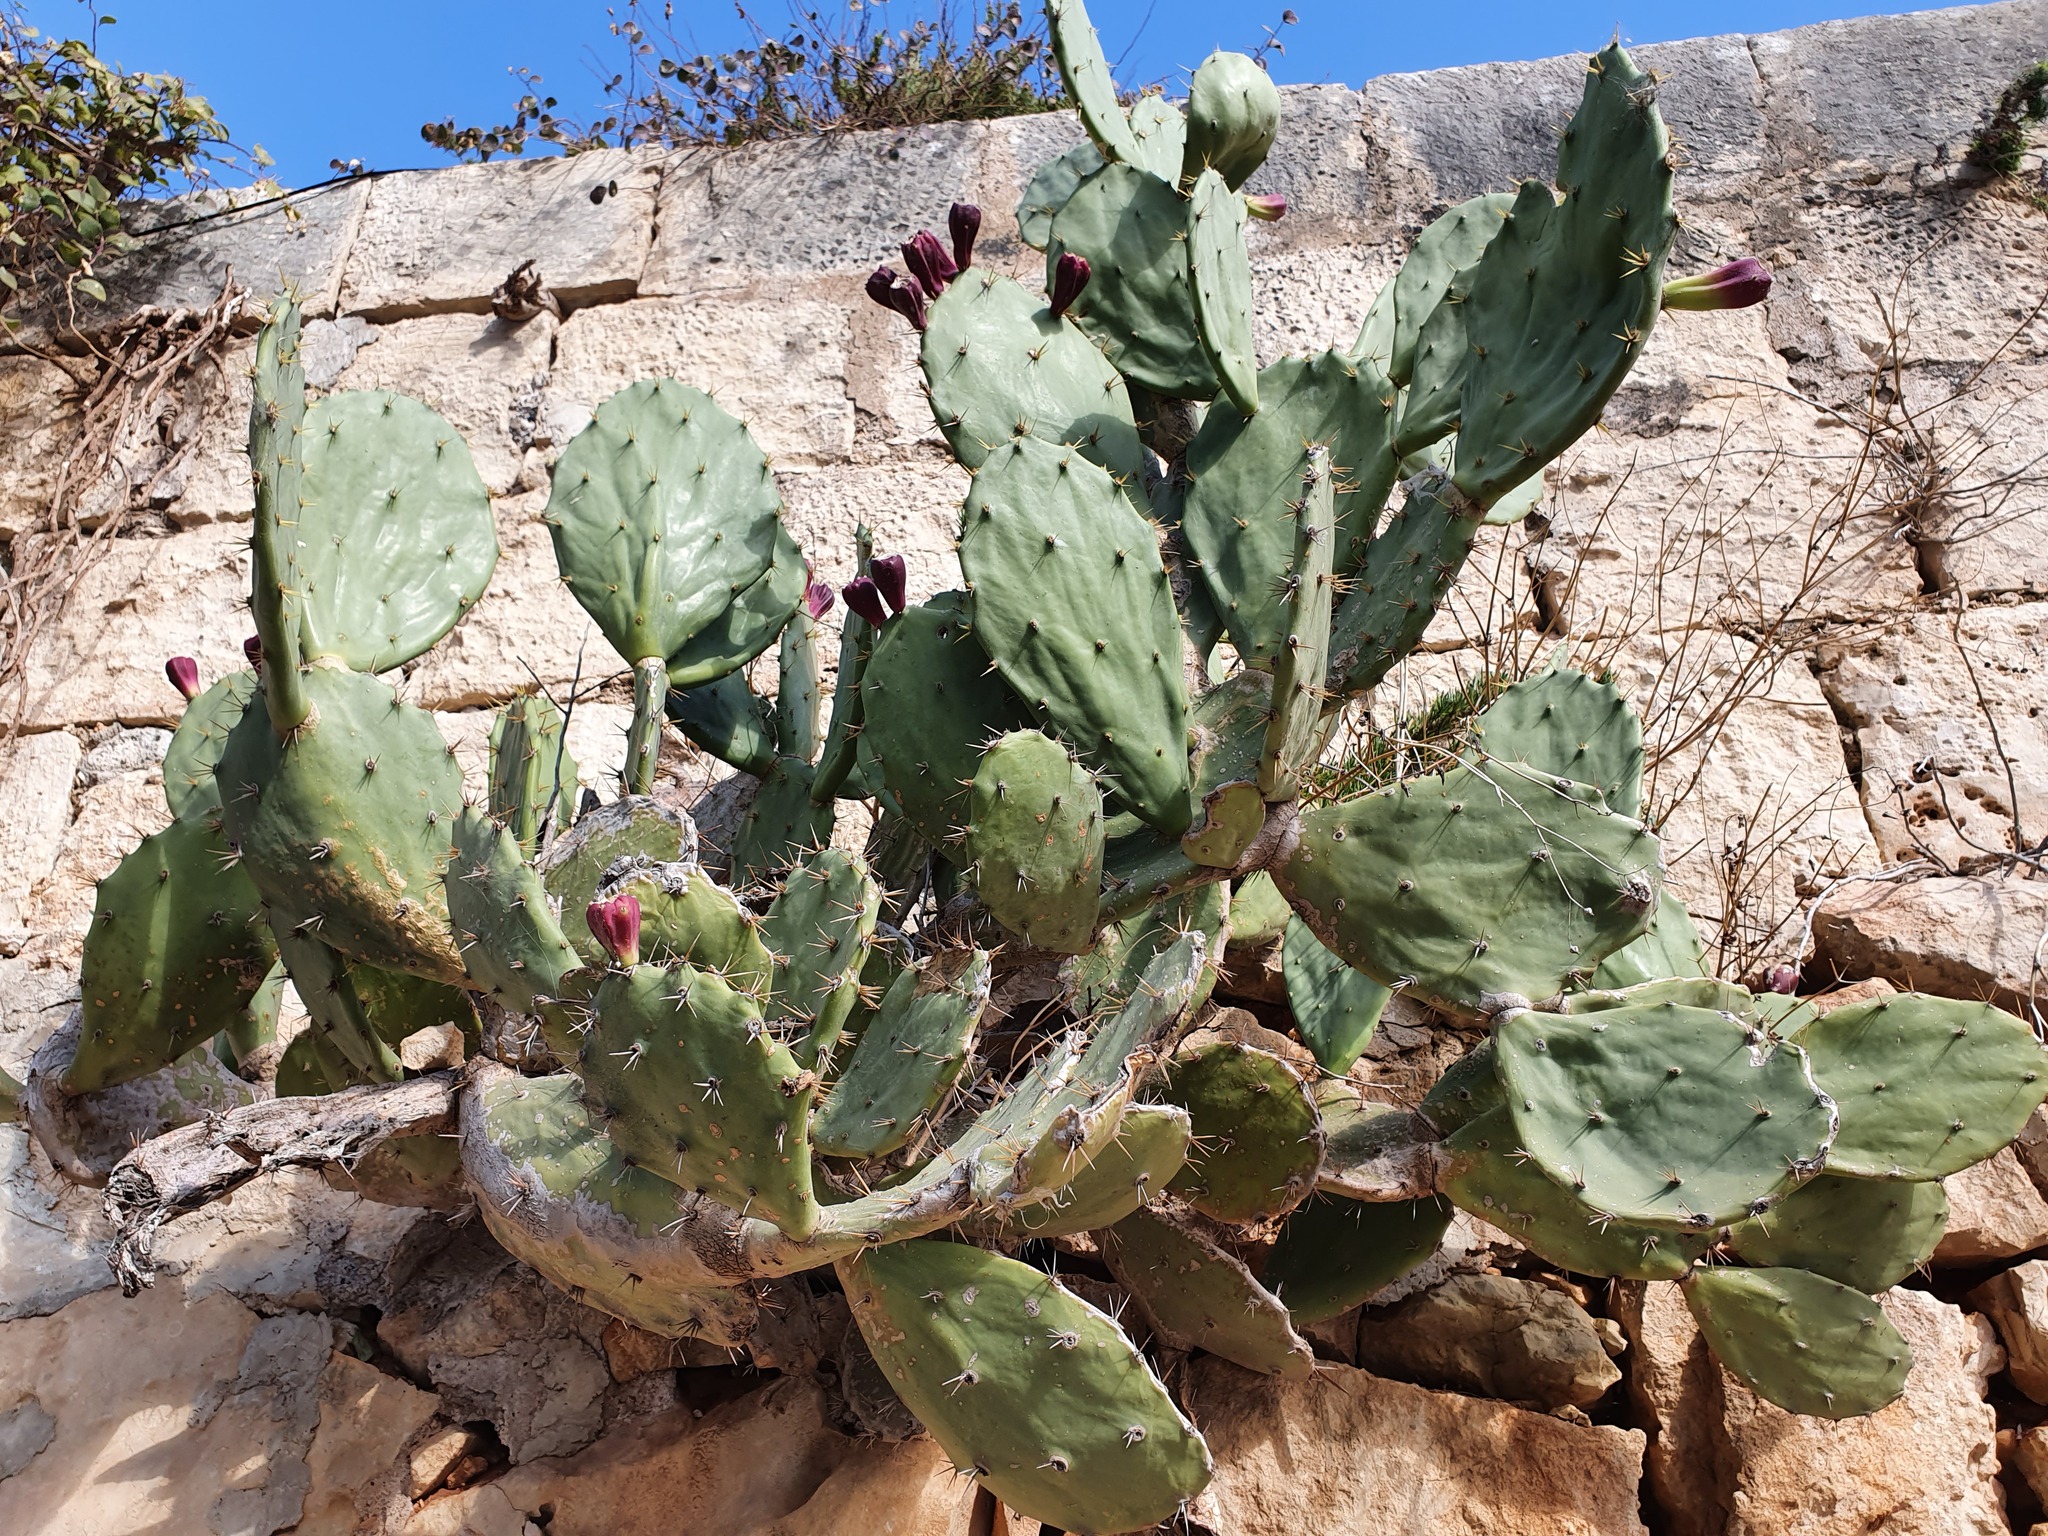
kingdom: Plantae
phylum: Tracheophyta
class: Magnoliopsida
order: Caryophyllales
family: Cactaceae
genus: Opuntia
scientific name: Opuntia dillenii
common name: Sour prickle
